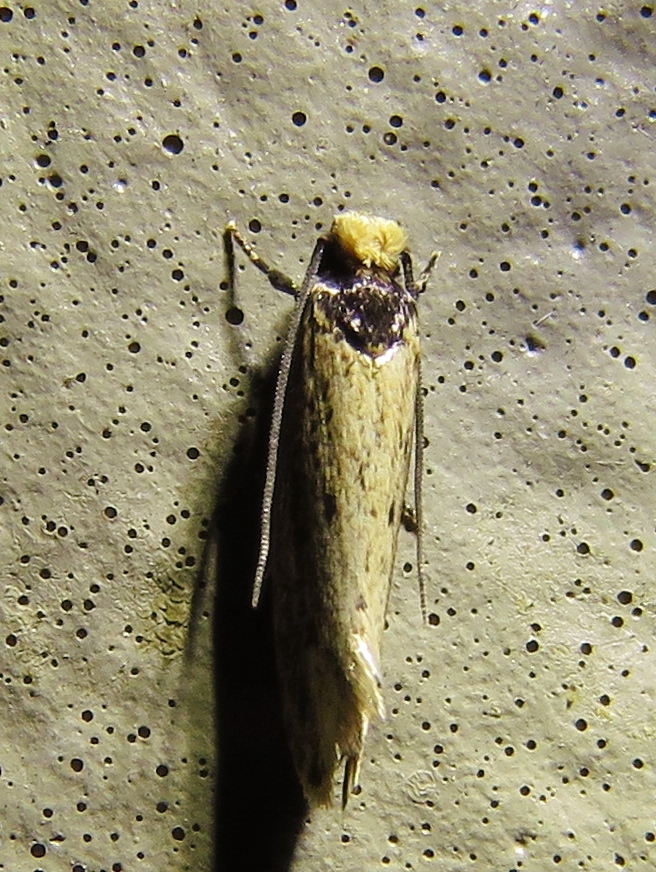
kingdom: Animalia
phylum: Arthropoda
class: Insecta
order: Lepidoptera
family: Tineidae
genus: Tinea
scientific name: Tinea apicimaculella
